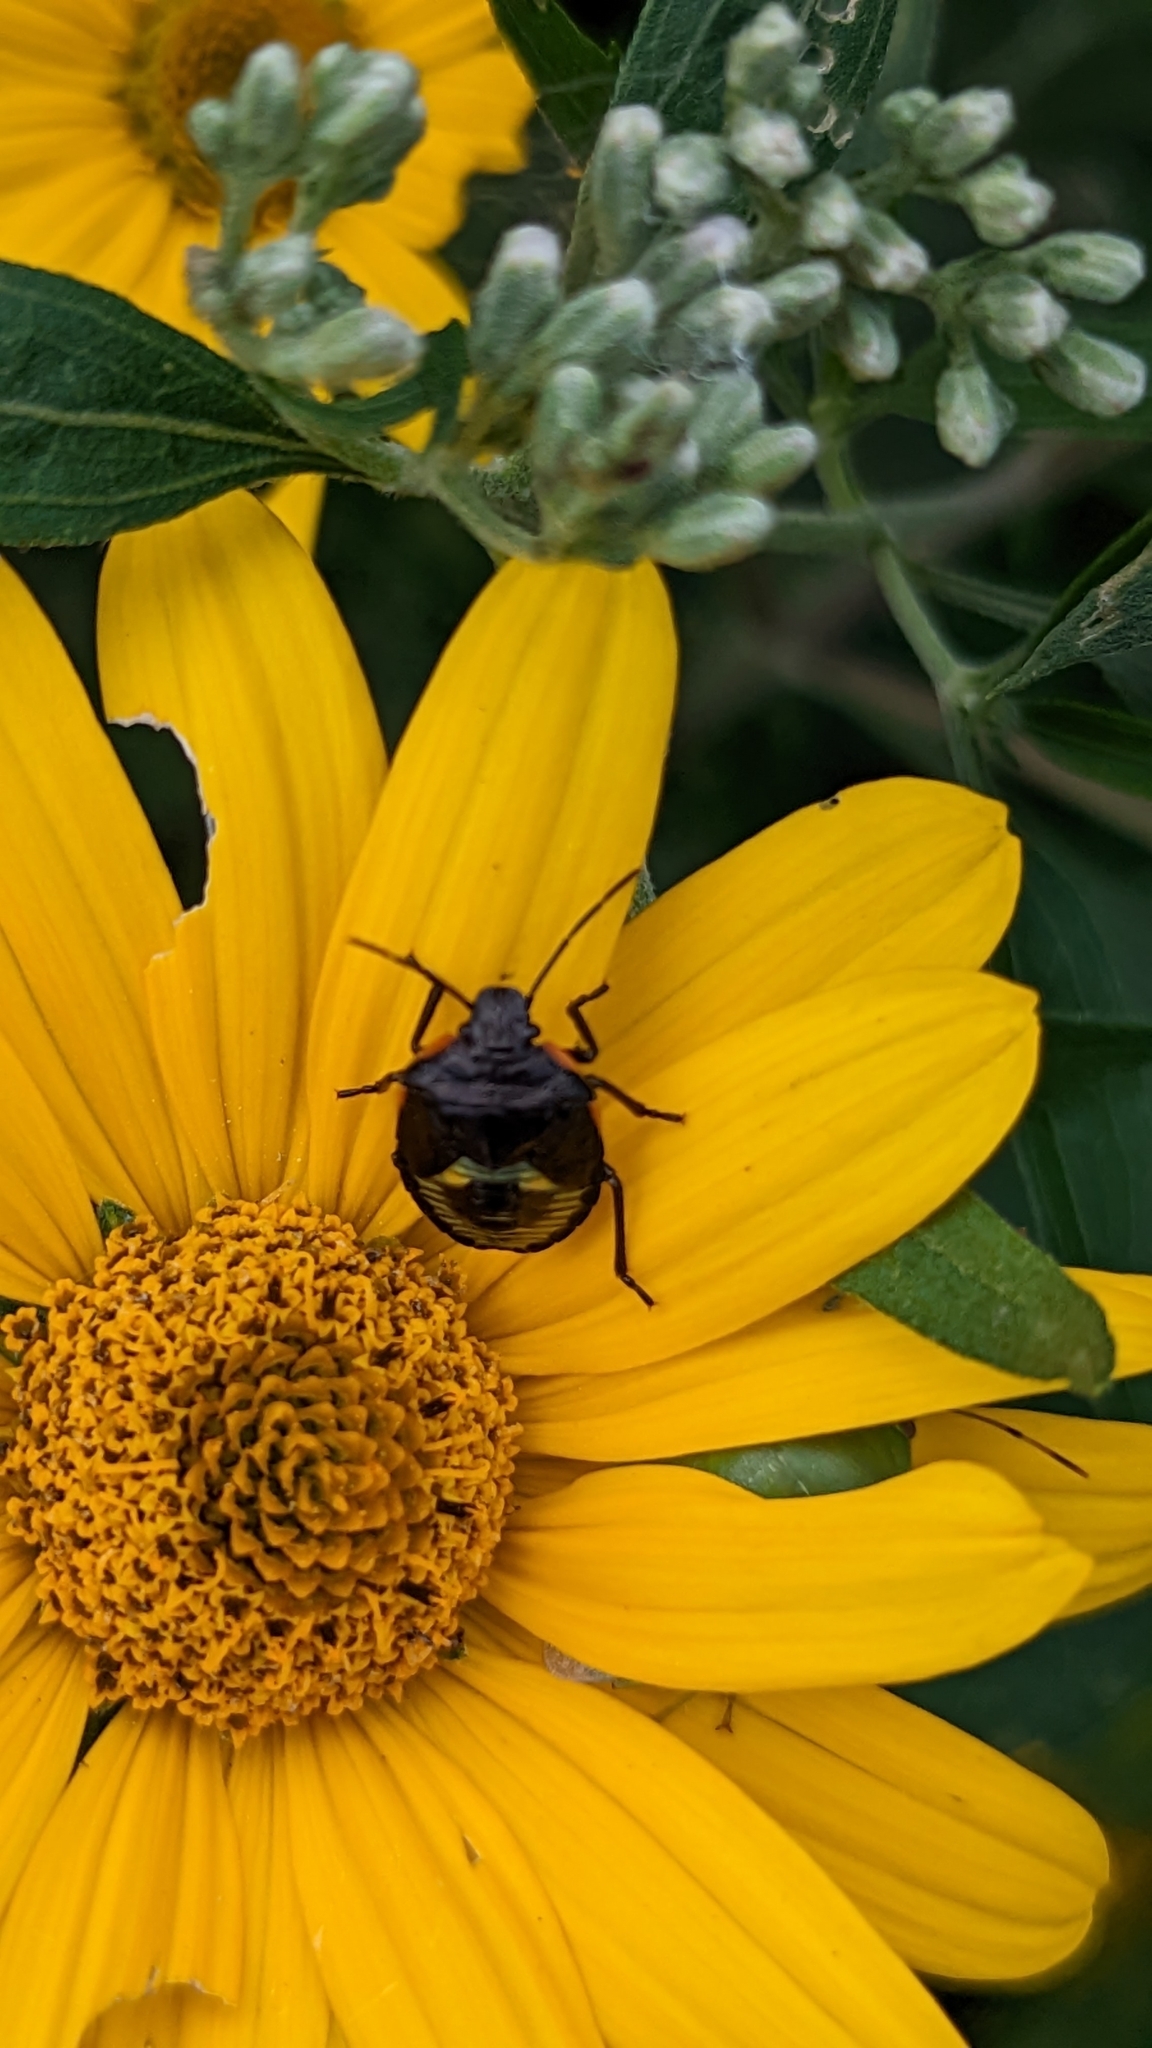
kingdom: Animalia
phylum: Arthropoda
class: Insecta
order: Hemiptera
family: Pentatomidae
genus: Chinavia
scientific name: Chinavia hilaris
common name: Green stink bug
